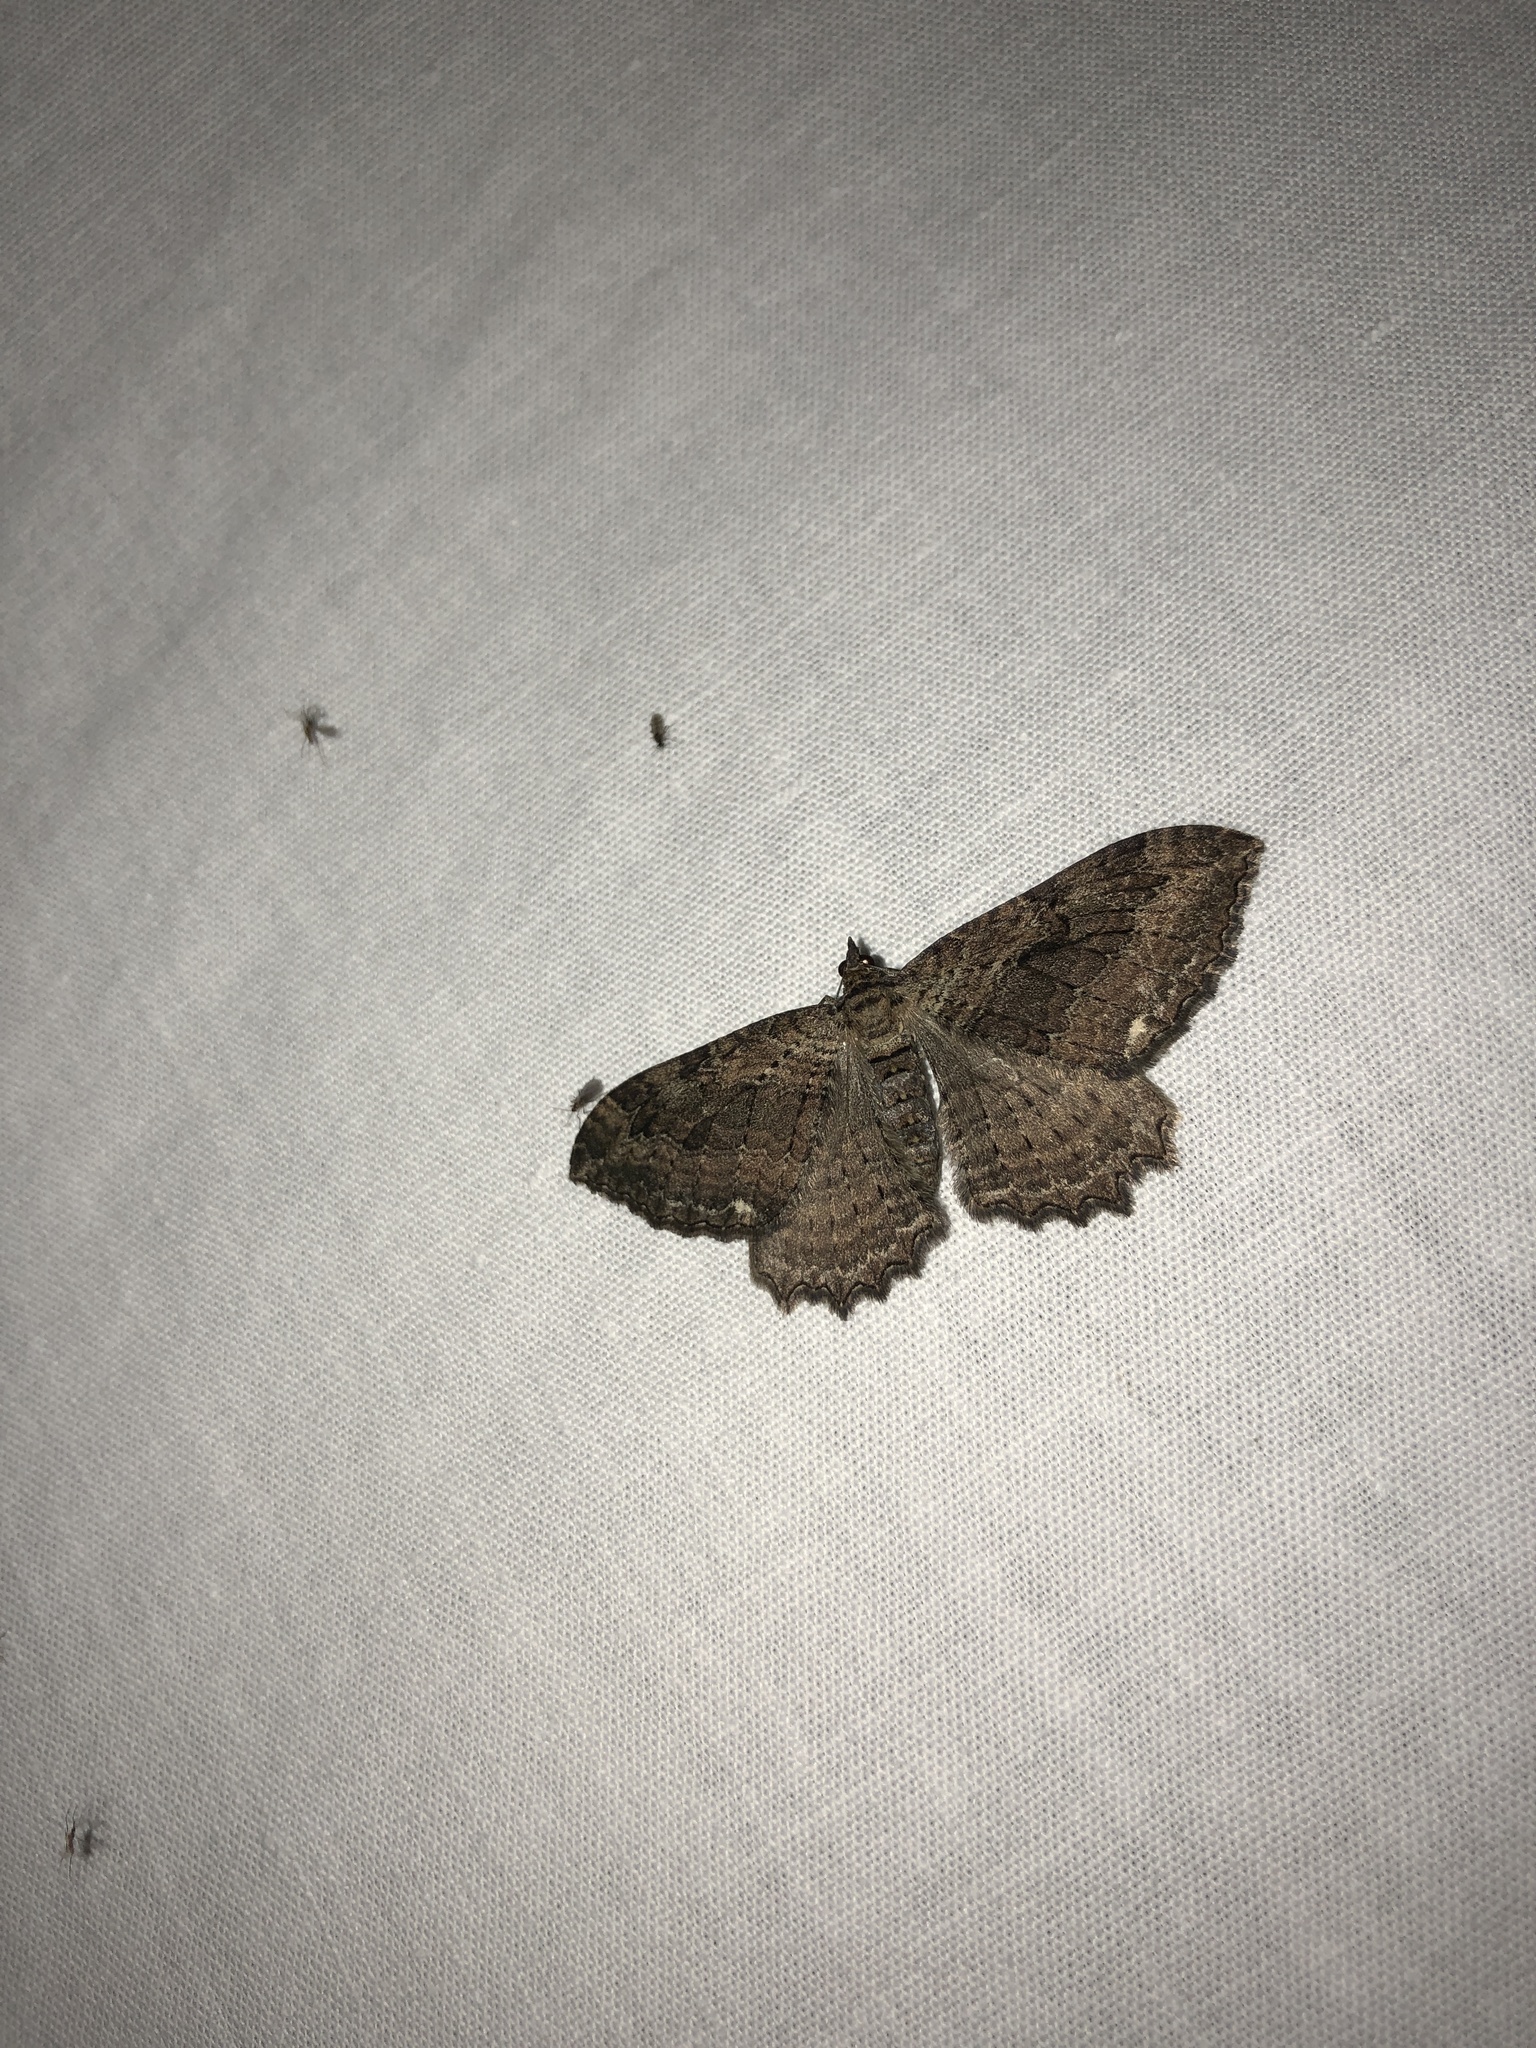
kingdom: Animalia
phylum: Arthropoda
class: Insecta
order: Lepidoptera
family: Geometridae
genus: Rheumaptera
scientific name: Rheumaptera
